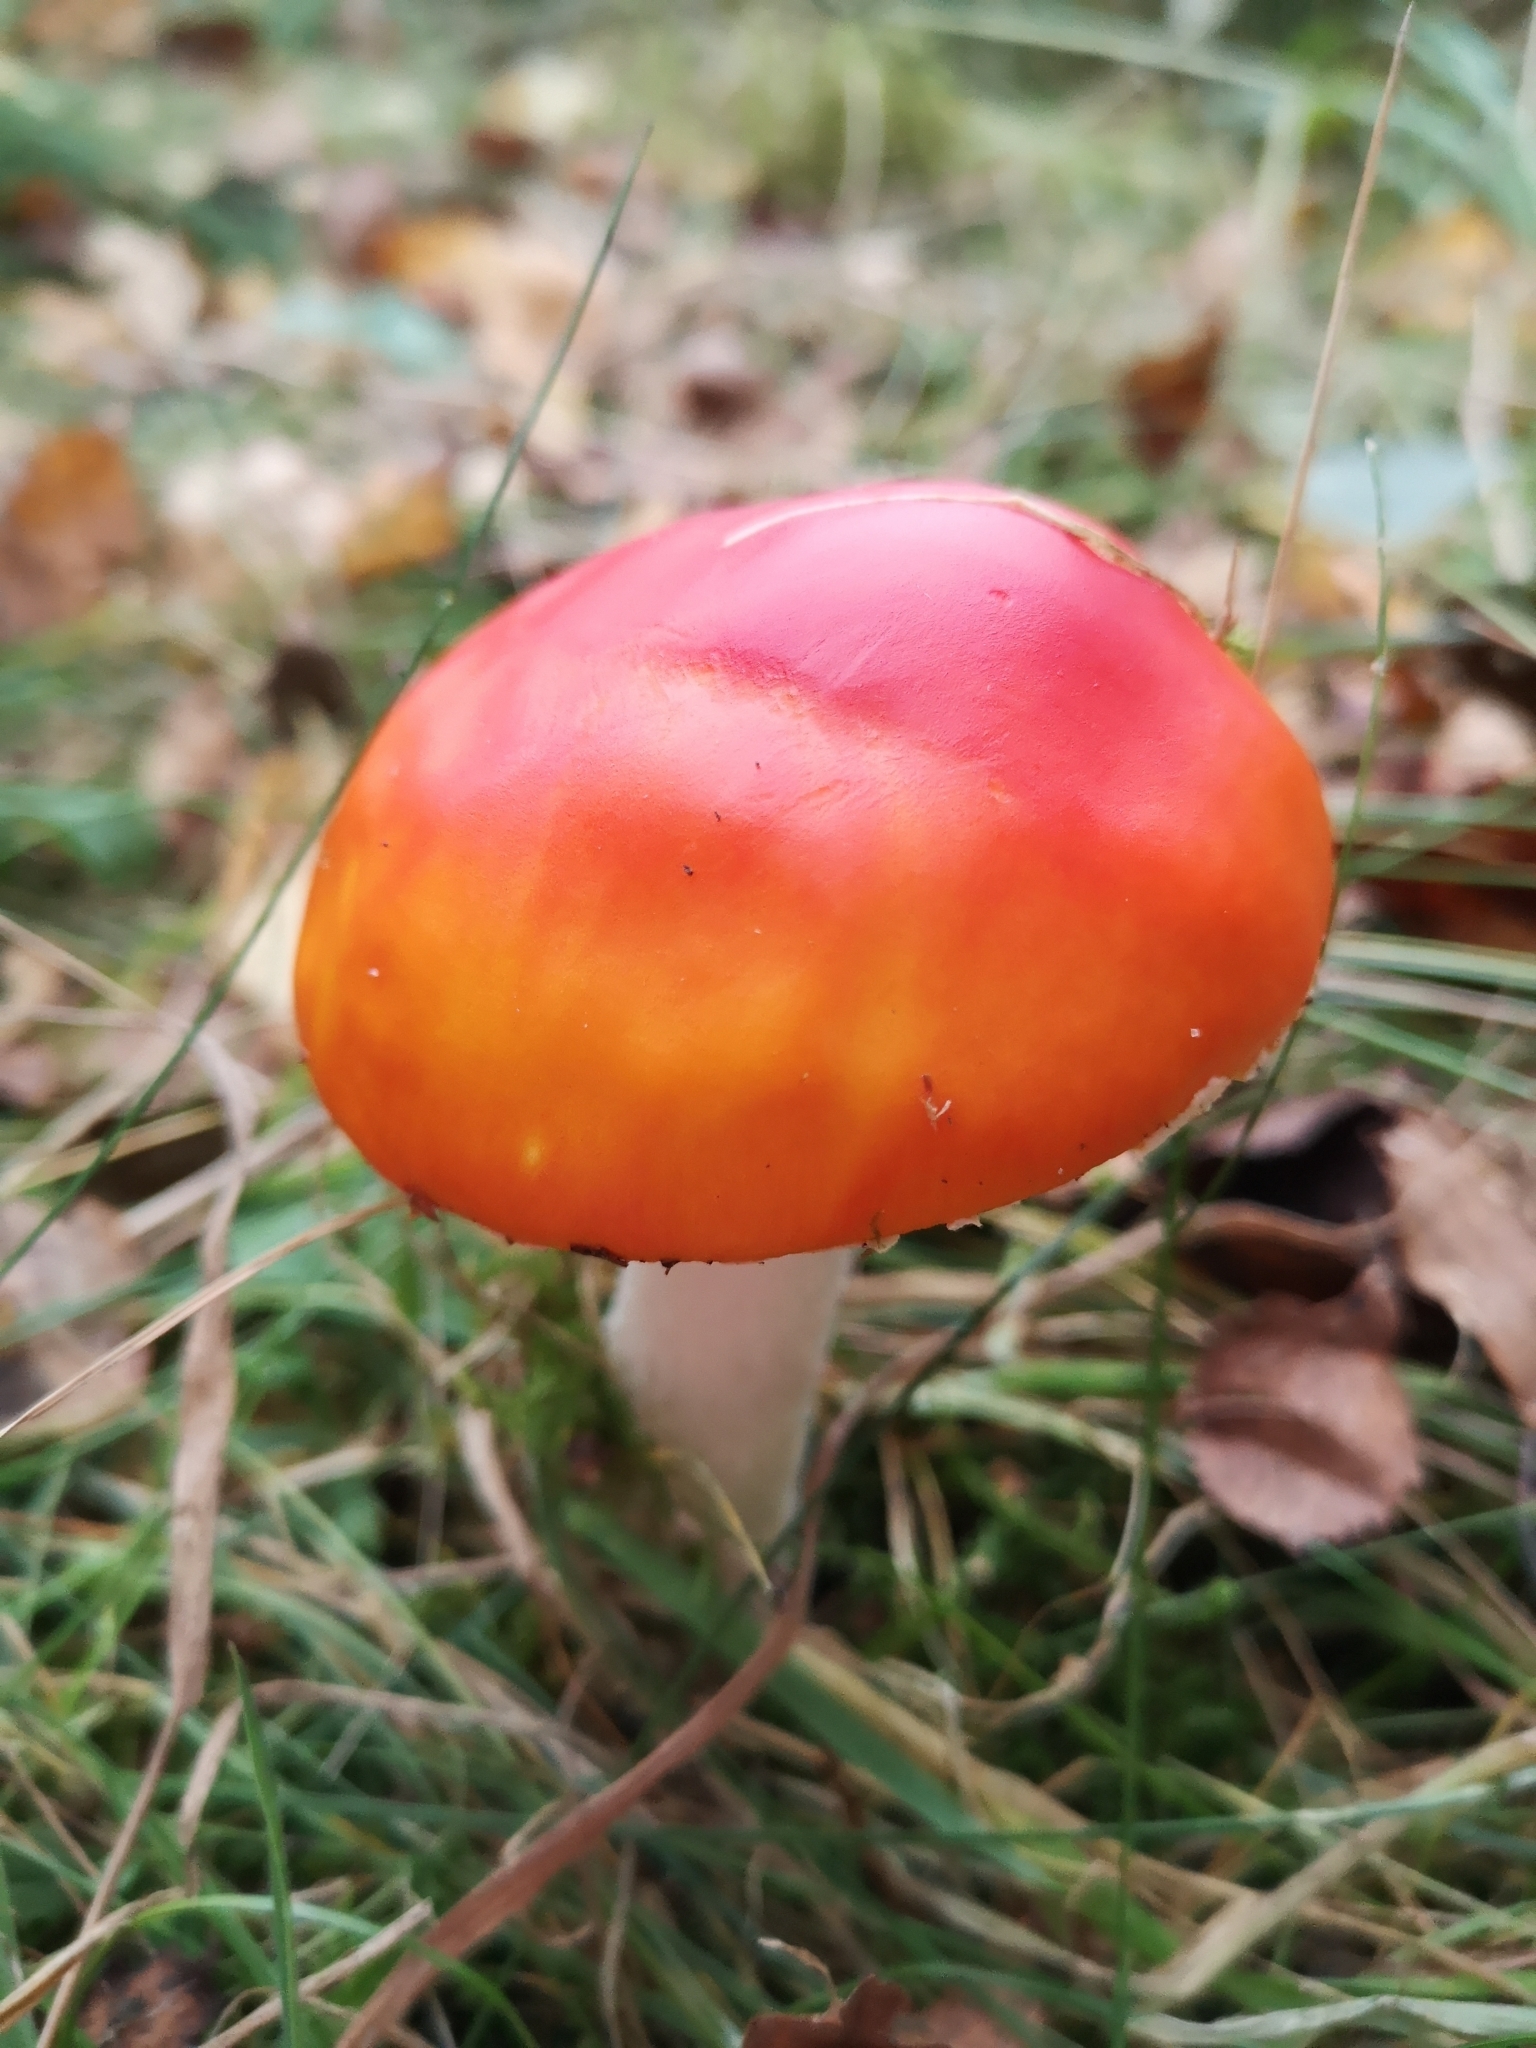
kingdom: Fungi
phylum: Basidiomycota
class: Agaricomycetes
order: Agaricales
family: Amanitaceae
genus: Amanita
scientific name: Amanita muscaria
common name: Fly agaric
